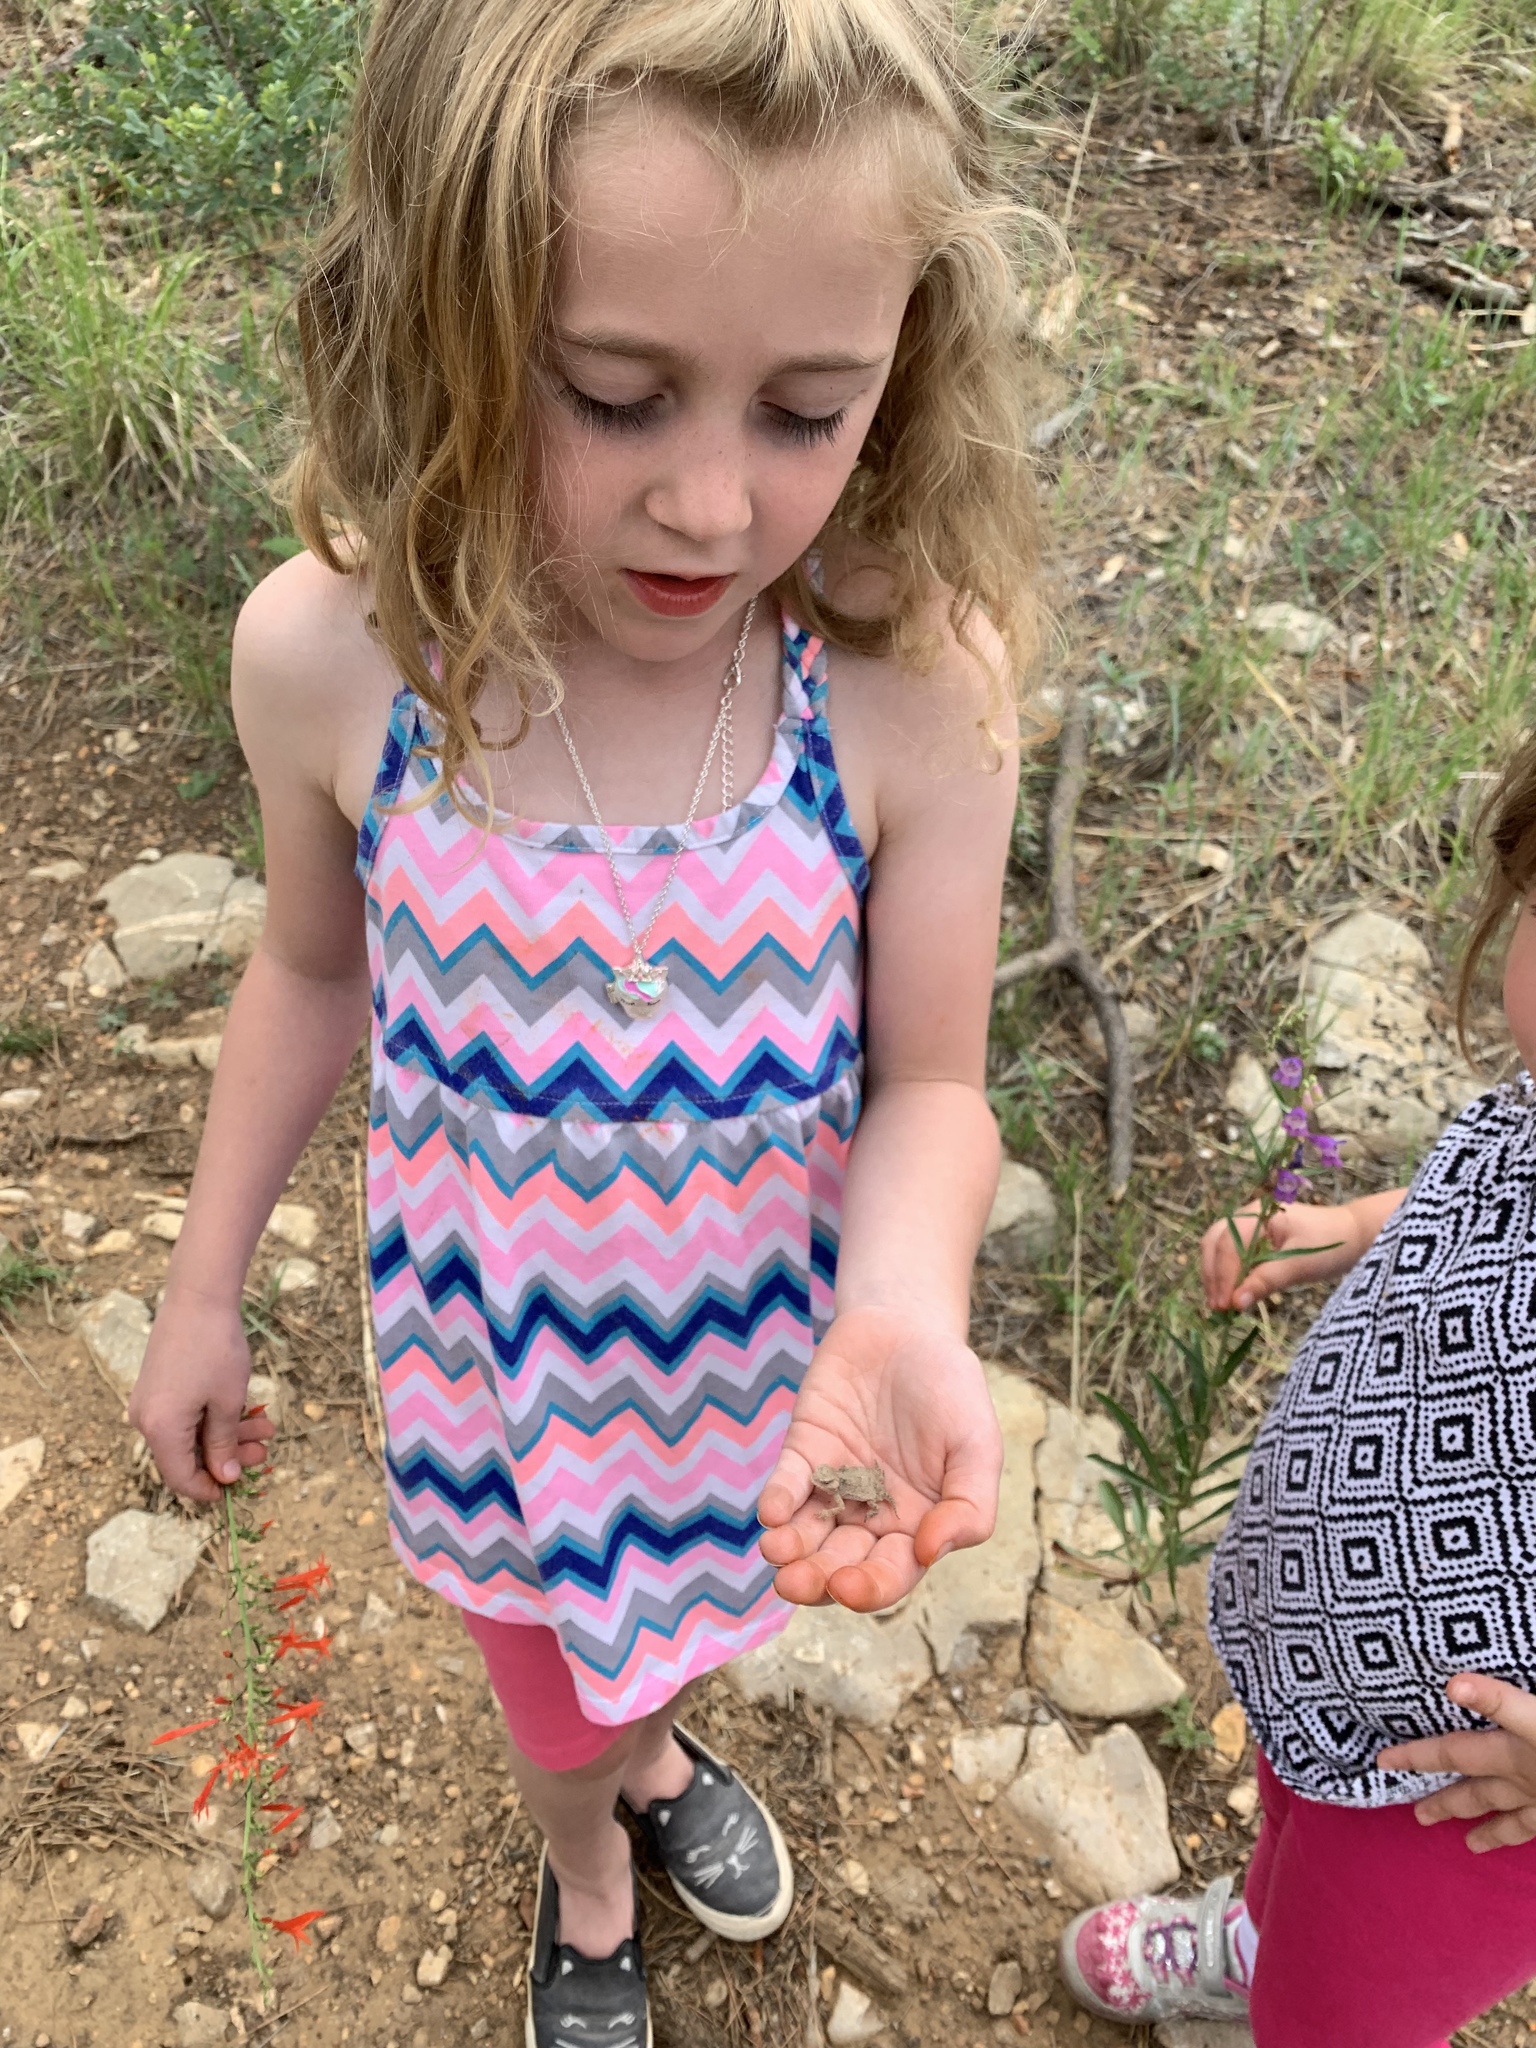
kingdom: Animalia
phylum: Chordata
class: Squamata
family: Phrynosomatidae
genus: Phrynosoma
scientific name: Phrynosoma hernandesi
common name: Greater short-horned lizard
